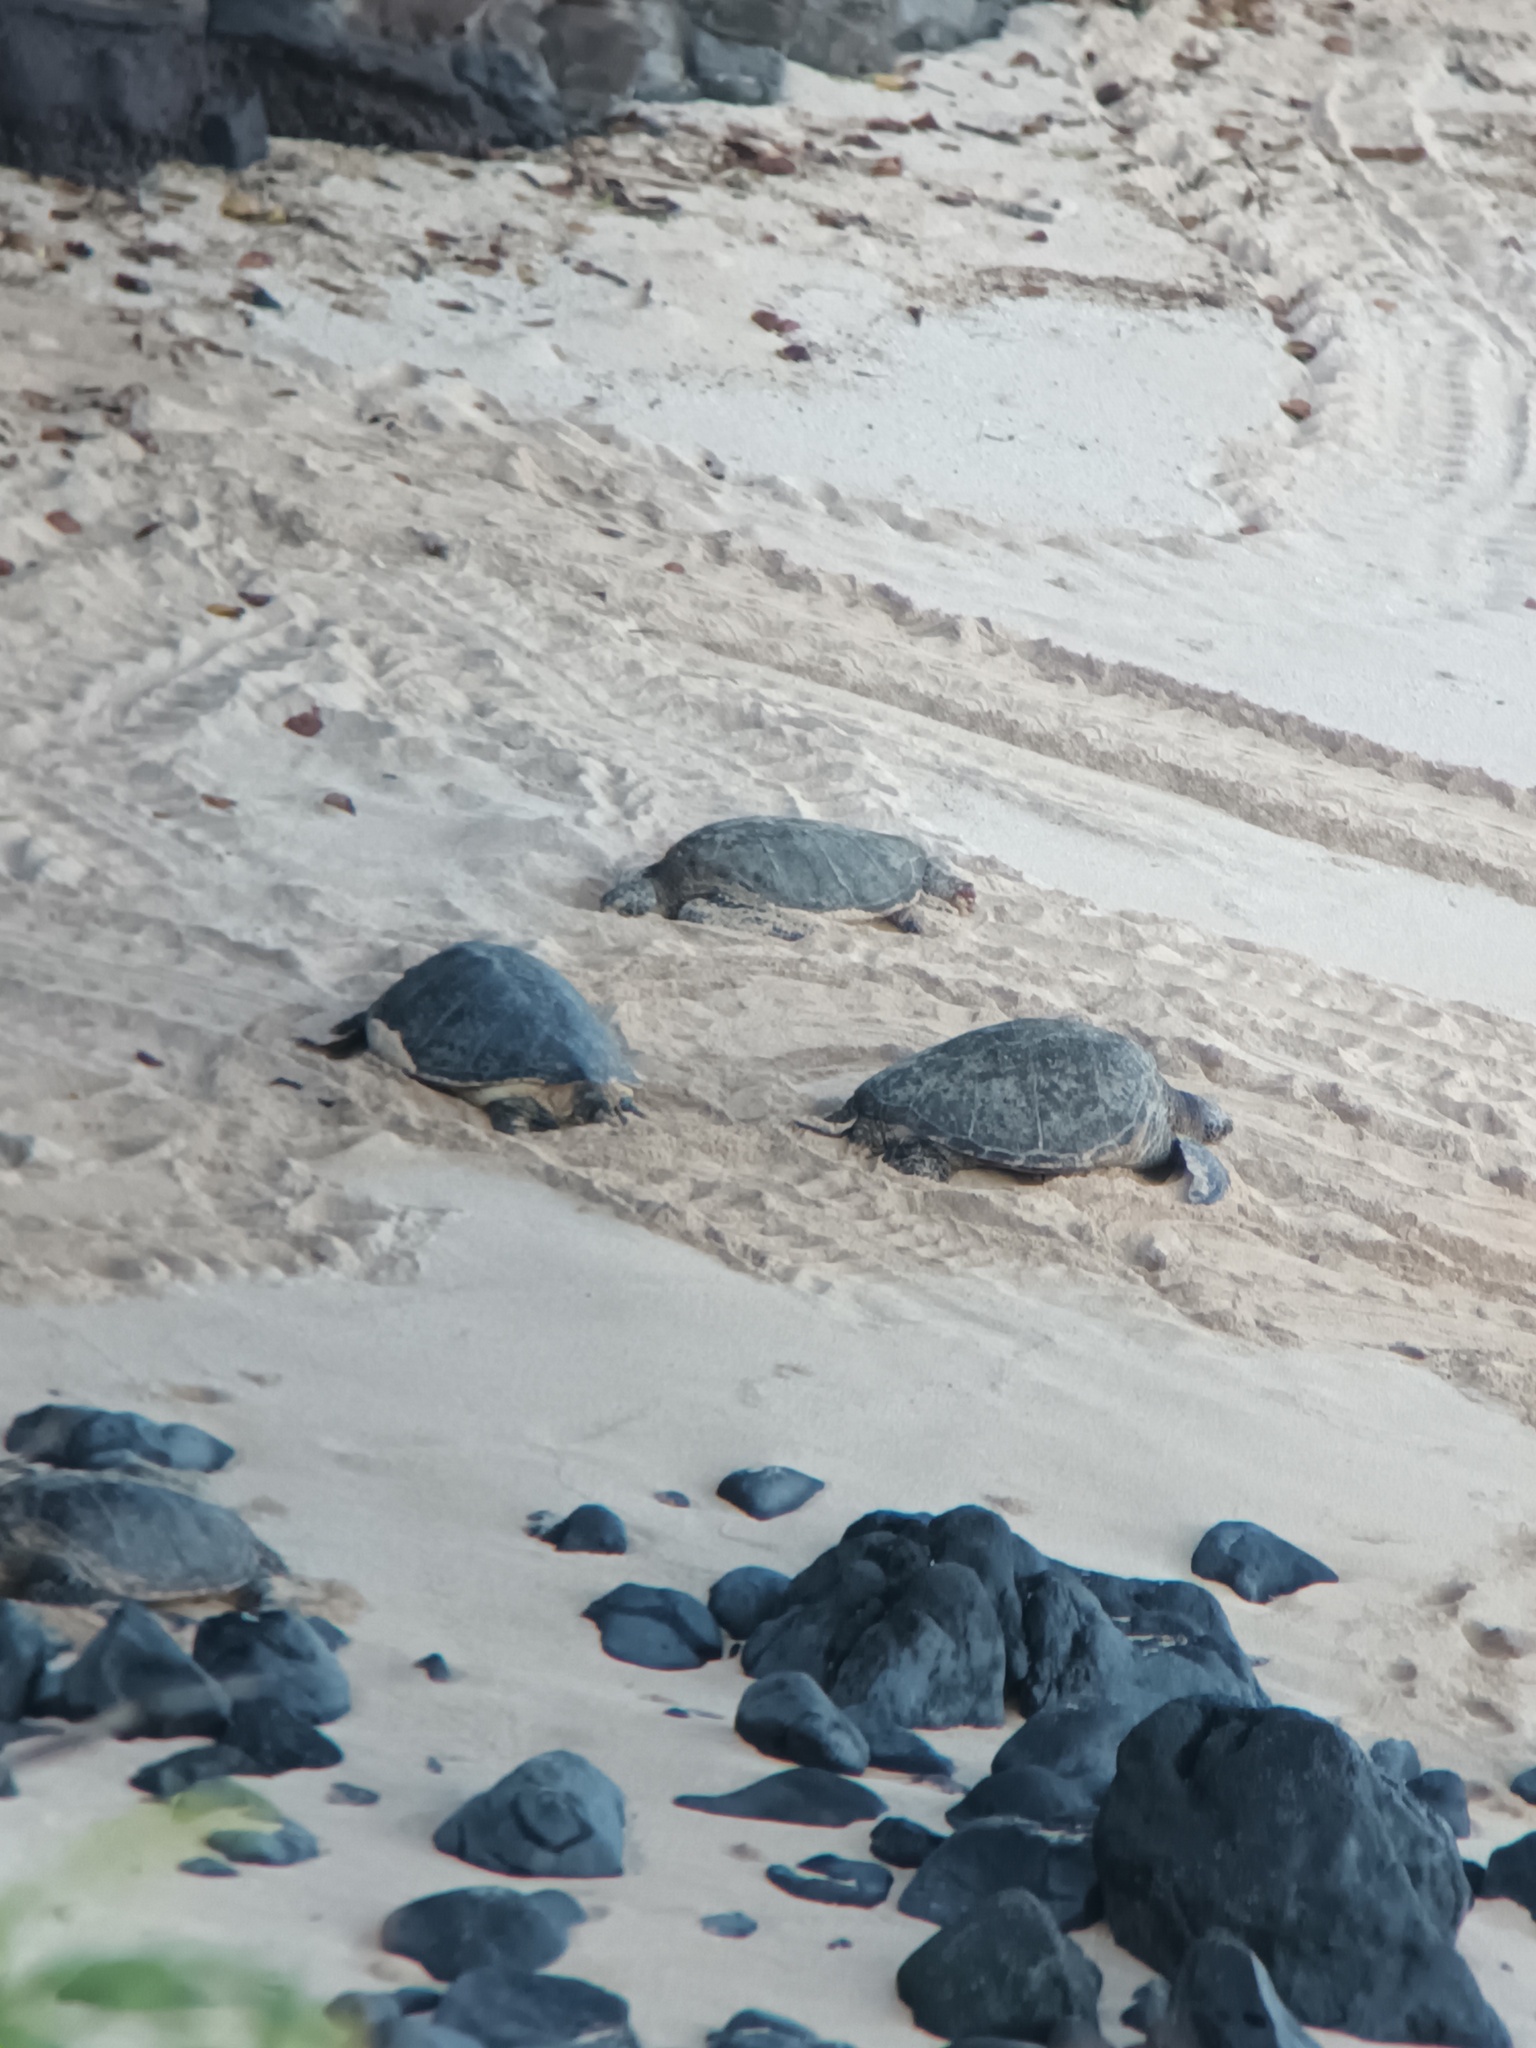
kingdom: Animalia
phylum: Chordata
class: Testudines
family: Cheloniidae
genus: Chelonia
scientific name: Chelonia mydas
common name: Green turtle
